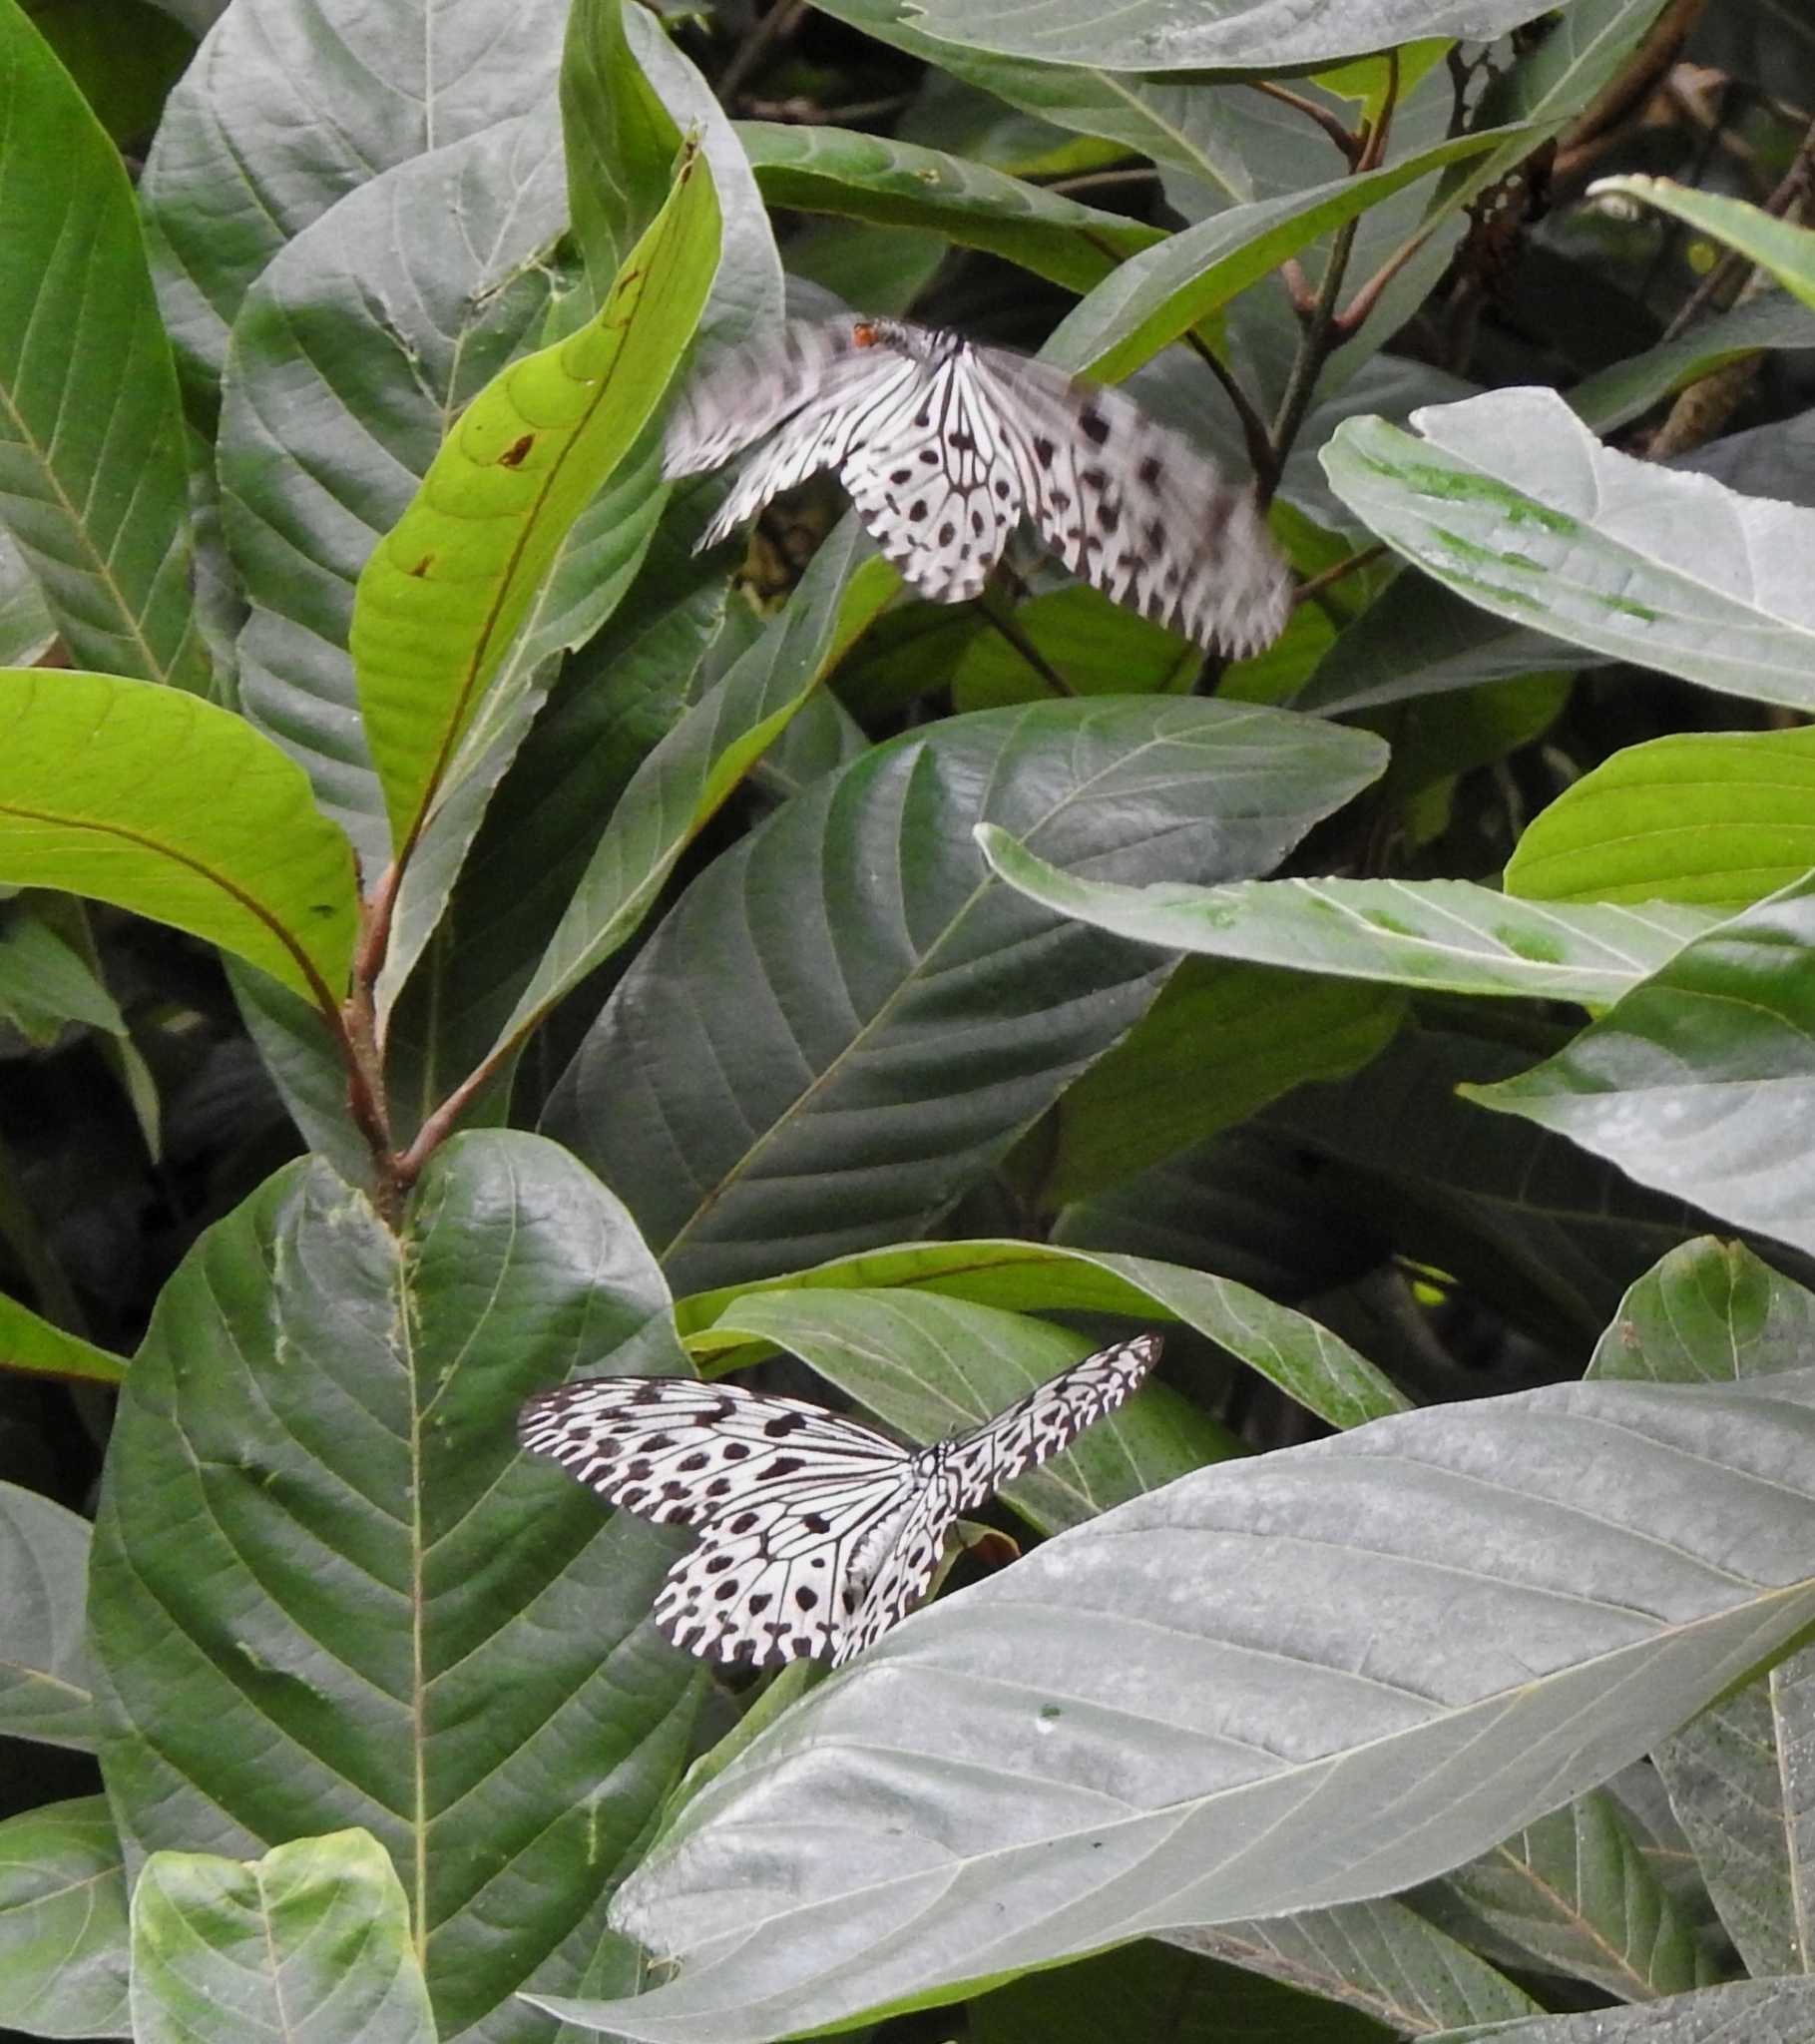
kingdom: Animalia
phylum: Arthropoda
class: Insecta
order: Lepidoptera
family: Nymphalidae
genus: Idea
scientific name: Idea malabarica
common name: Malabar tree-nymph
